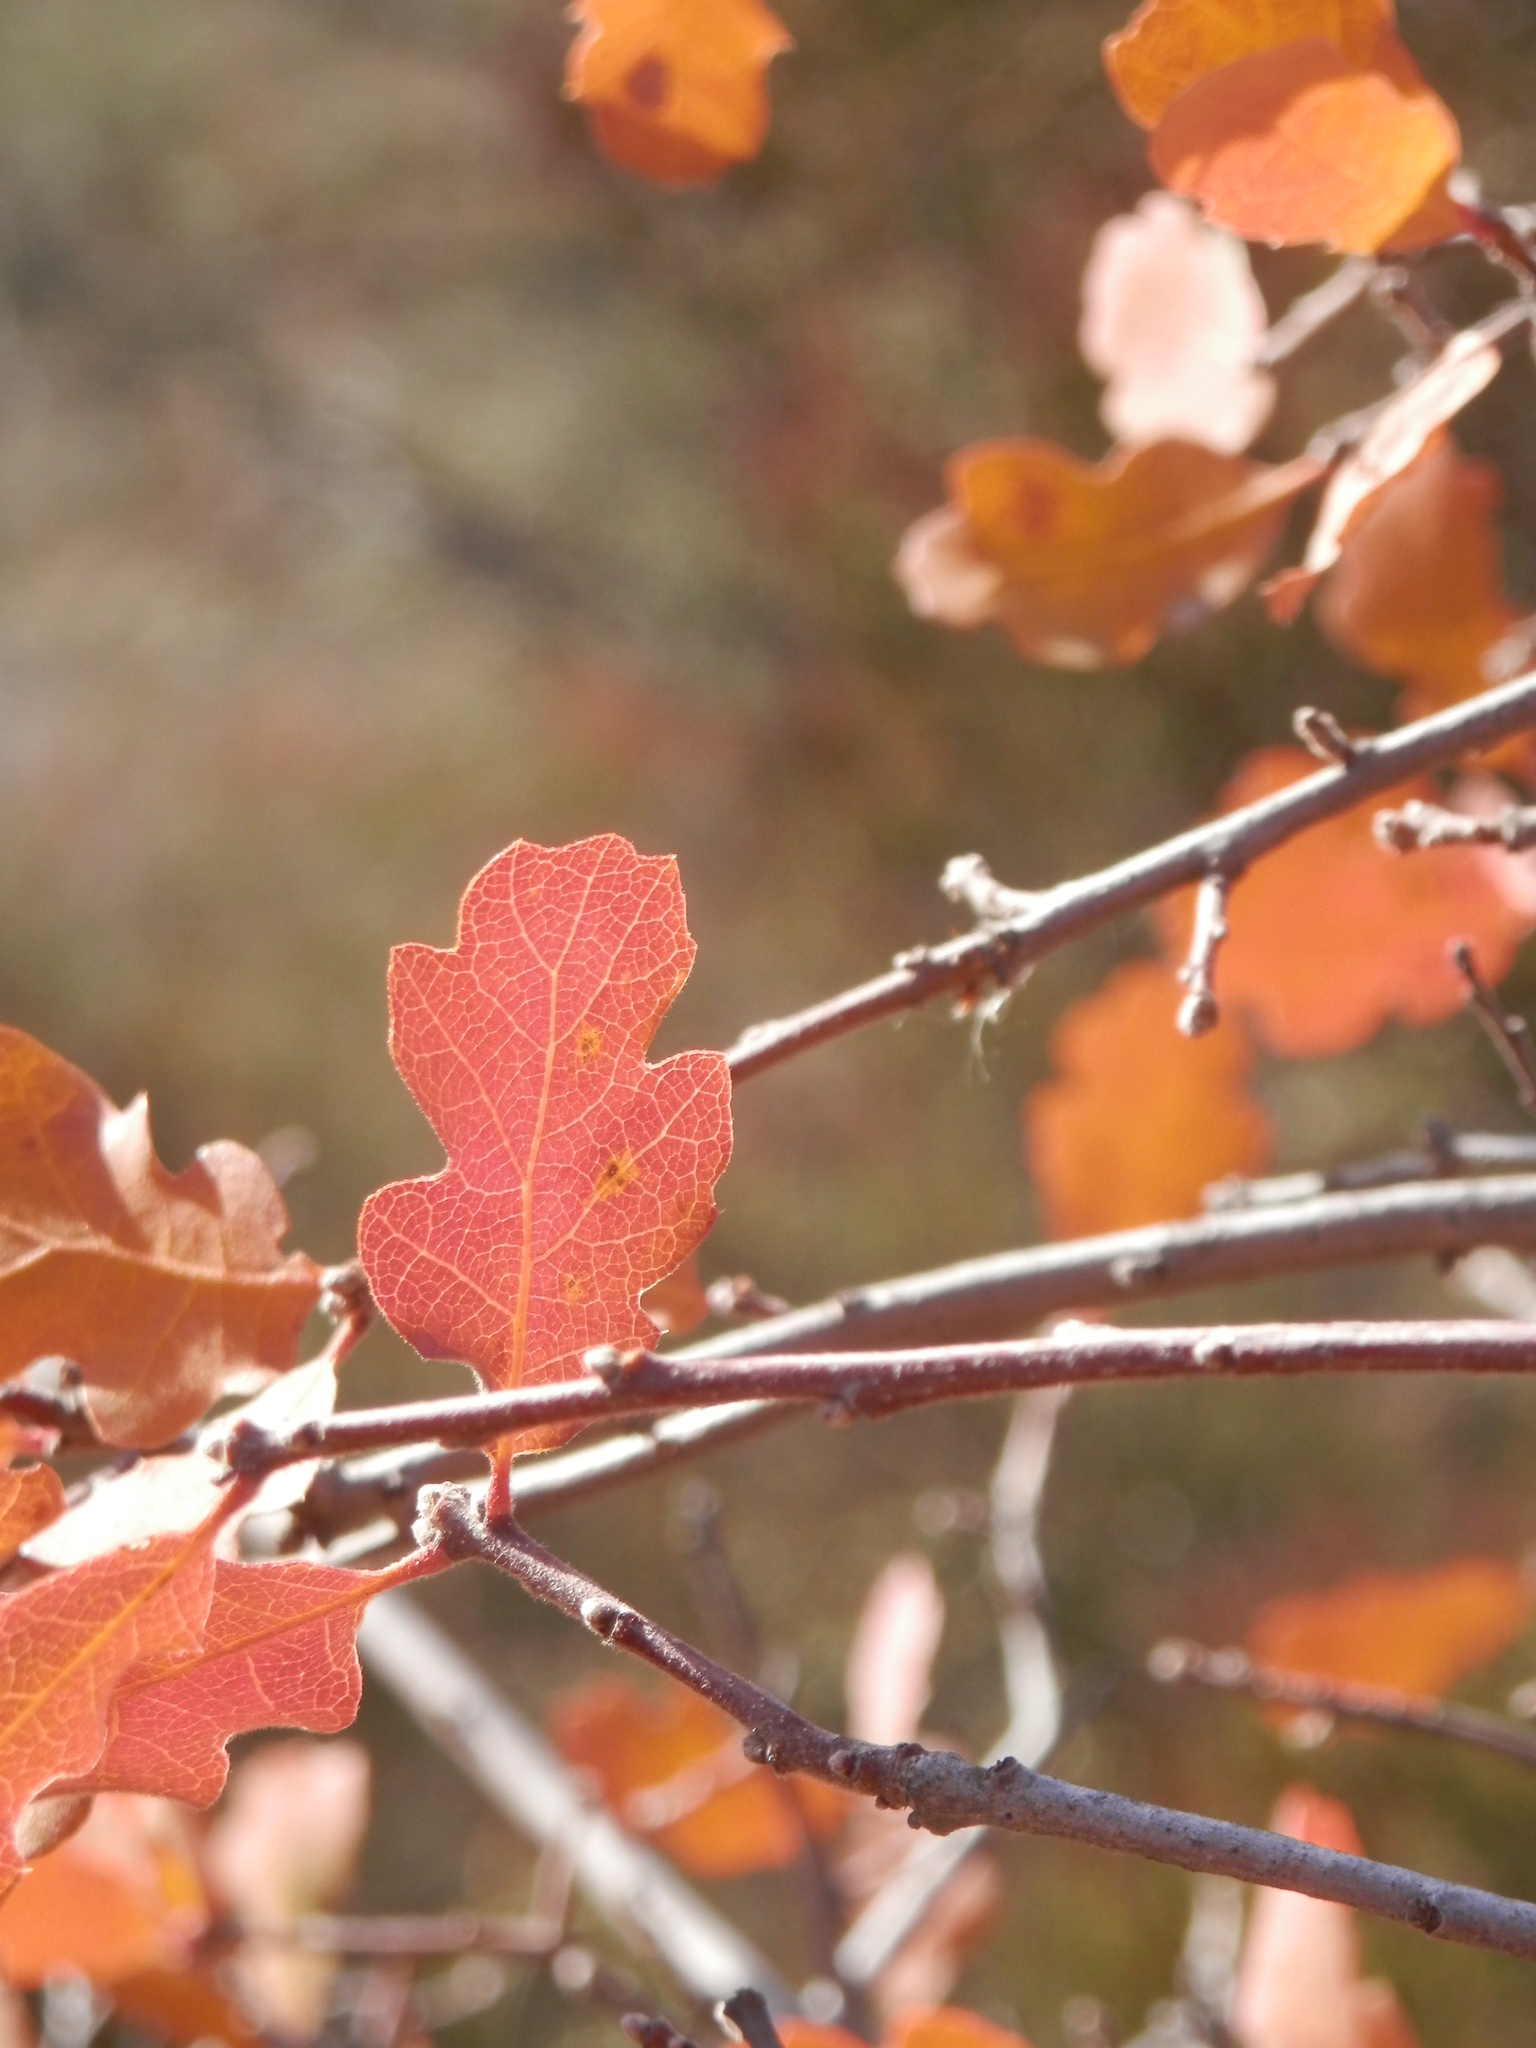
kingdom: Plantae
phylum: Tracheophyta
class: Magnoliopsida
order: Fagales
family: Fagaceae
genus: Quercus
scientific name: Quercus douglasii
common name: Blue oak
